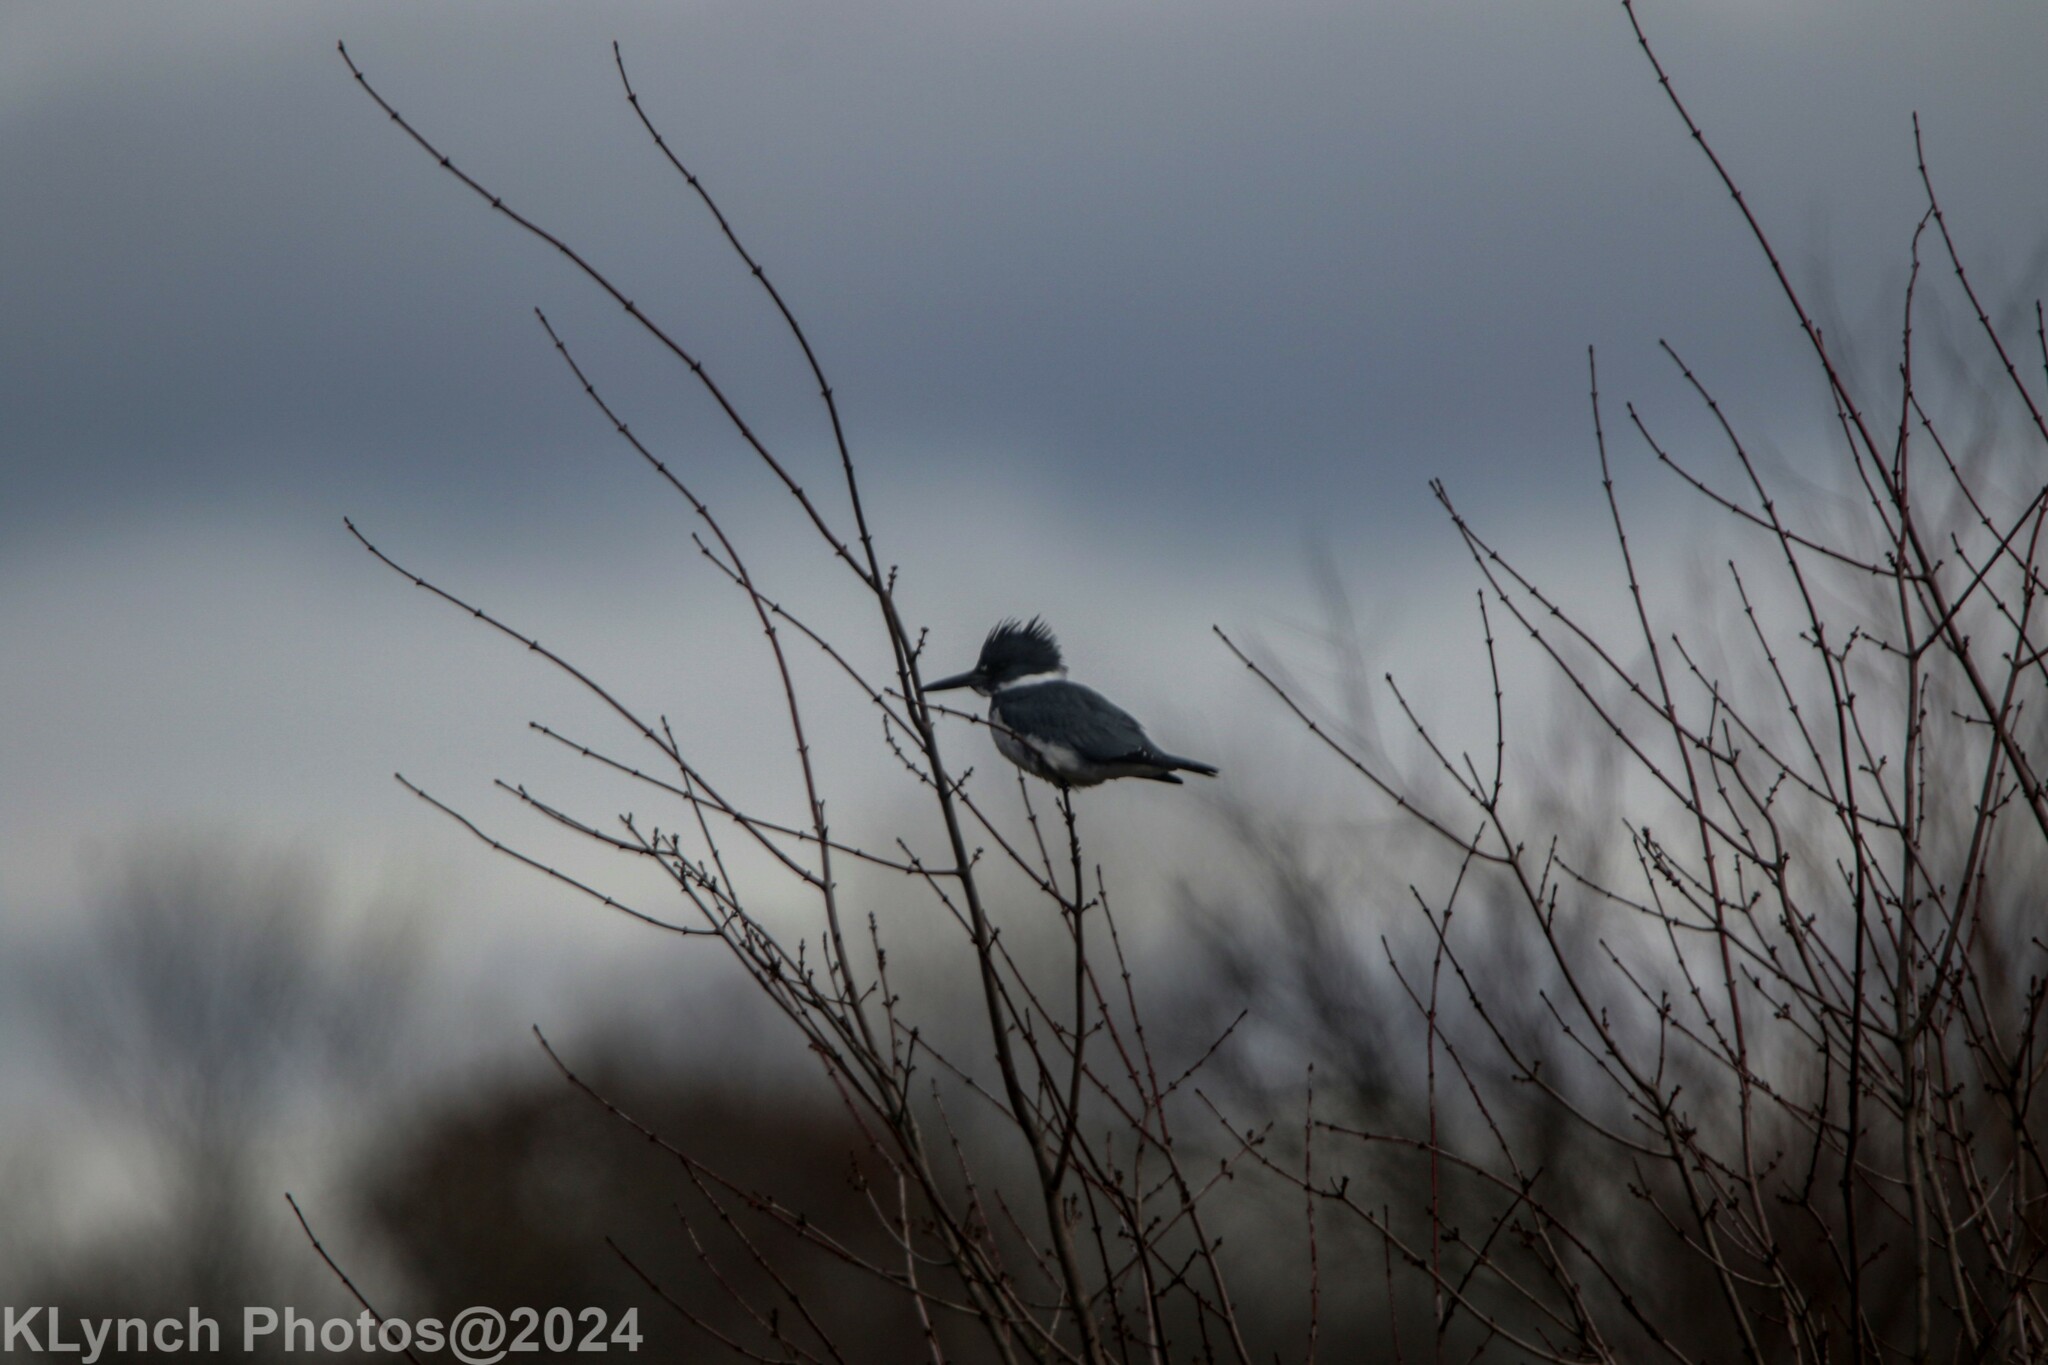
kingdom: Animalia
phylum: Chordata
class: Aves
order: Coraciiformes
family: Alcedinidae
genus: Megaceryle
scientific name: Megaceryle alcyon
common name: Belted kingfisher
